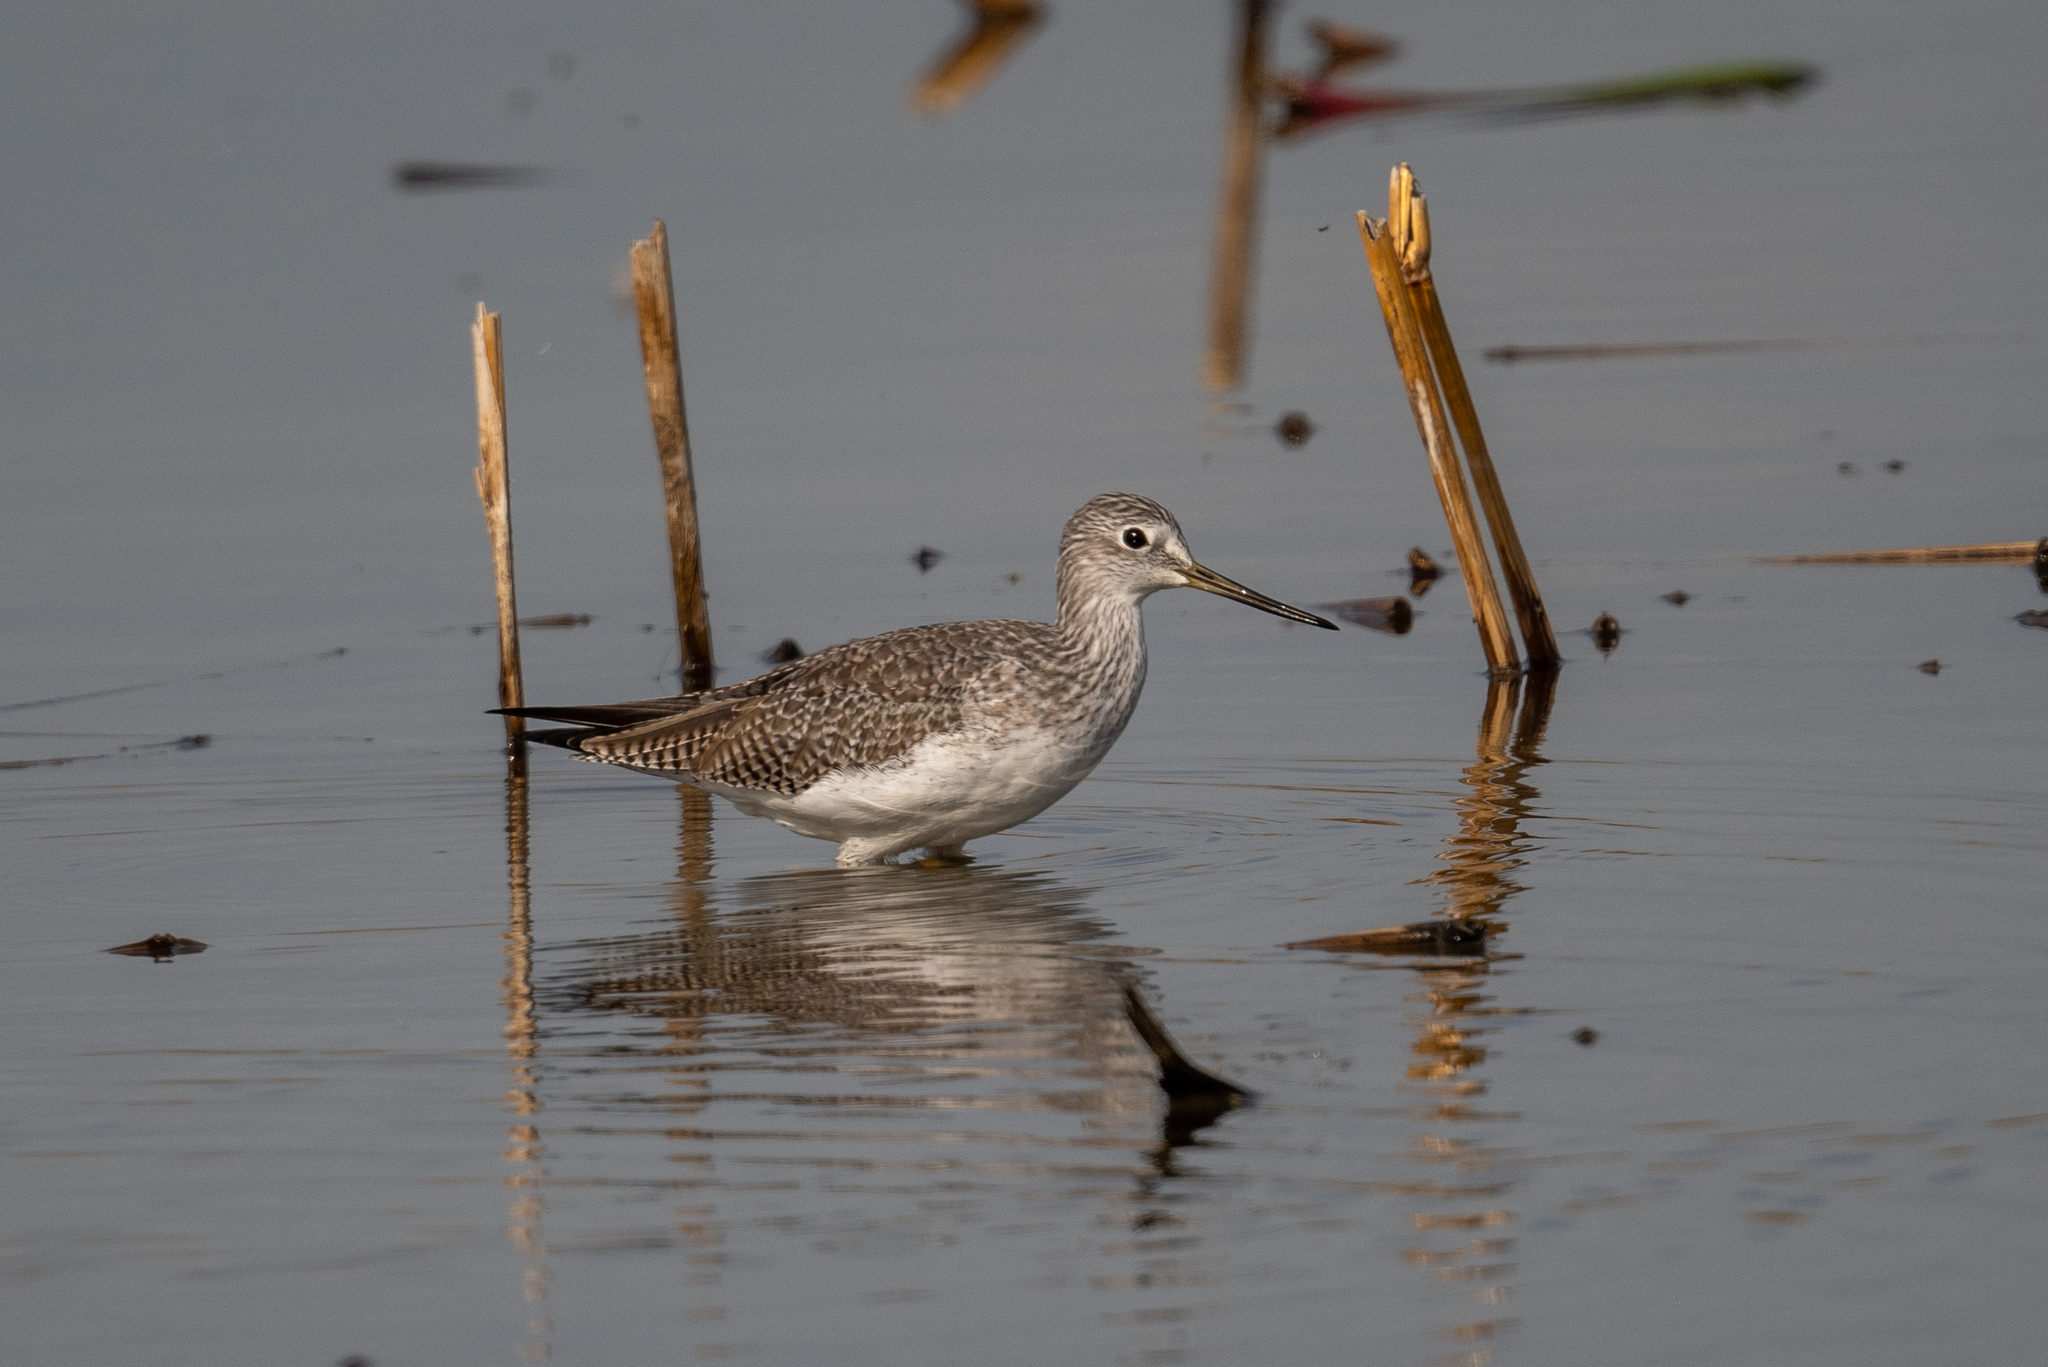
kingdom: Animalia
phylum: Chordata
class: Aves
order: Charadriiformes
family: Scolopacidae
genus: Tringa
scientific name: Tringa melanoleuca
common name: Greater yellowlegs
